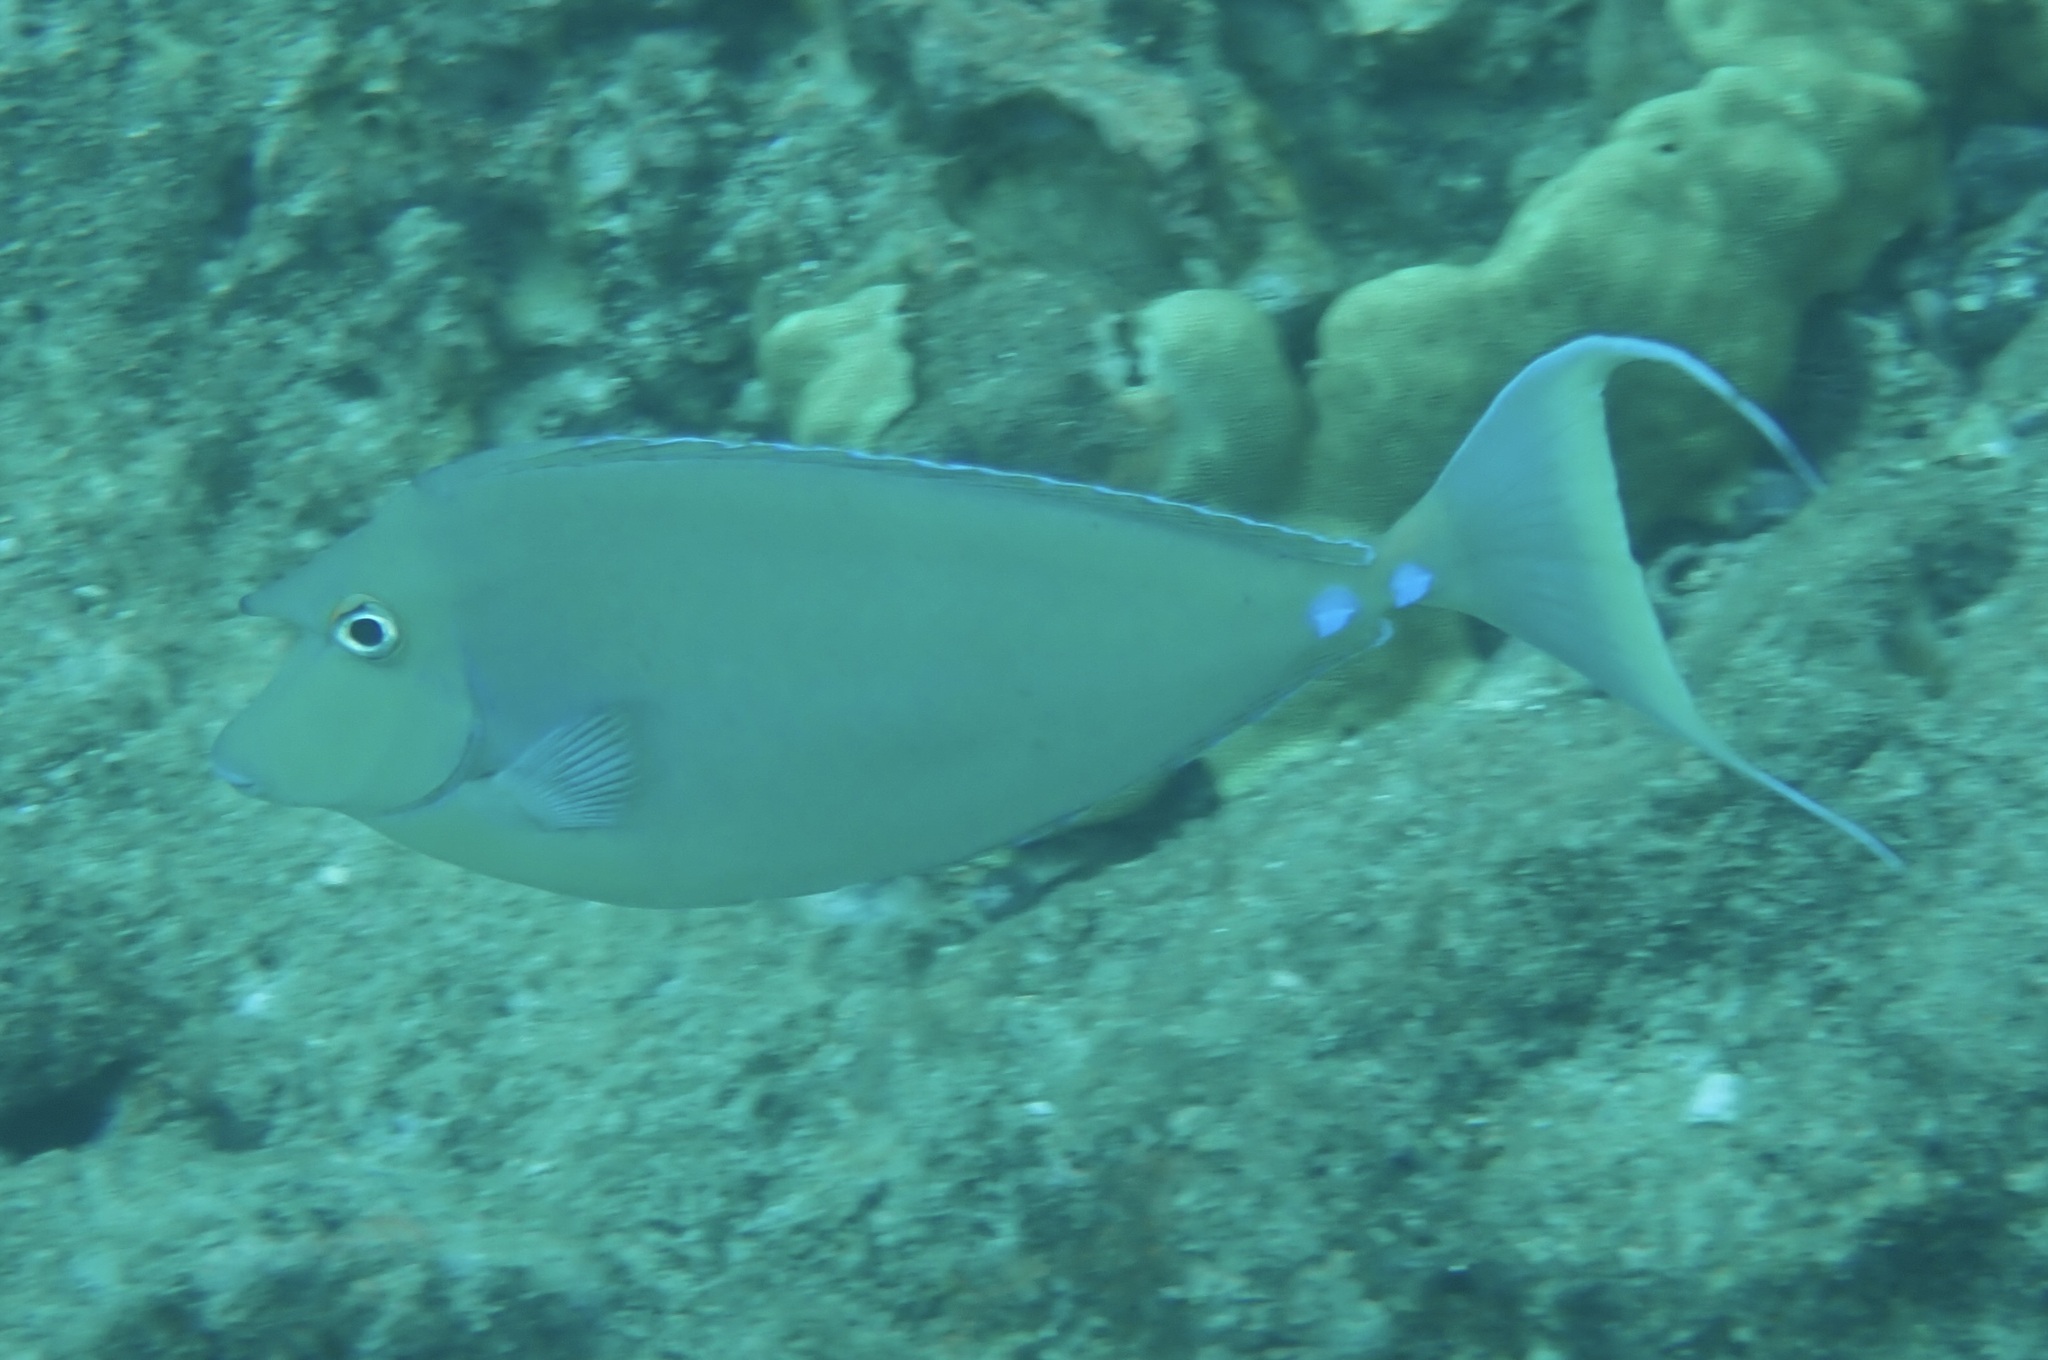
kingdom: Animalia
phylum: Chordata
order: Perciformes
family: Acanthuridae
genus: Naso
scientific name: Naso unicornis
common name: Bluespine unicornfish
